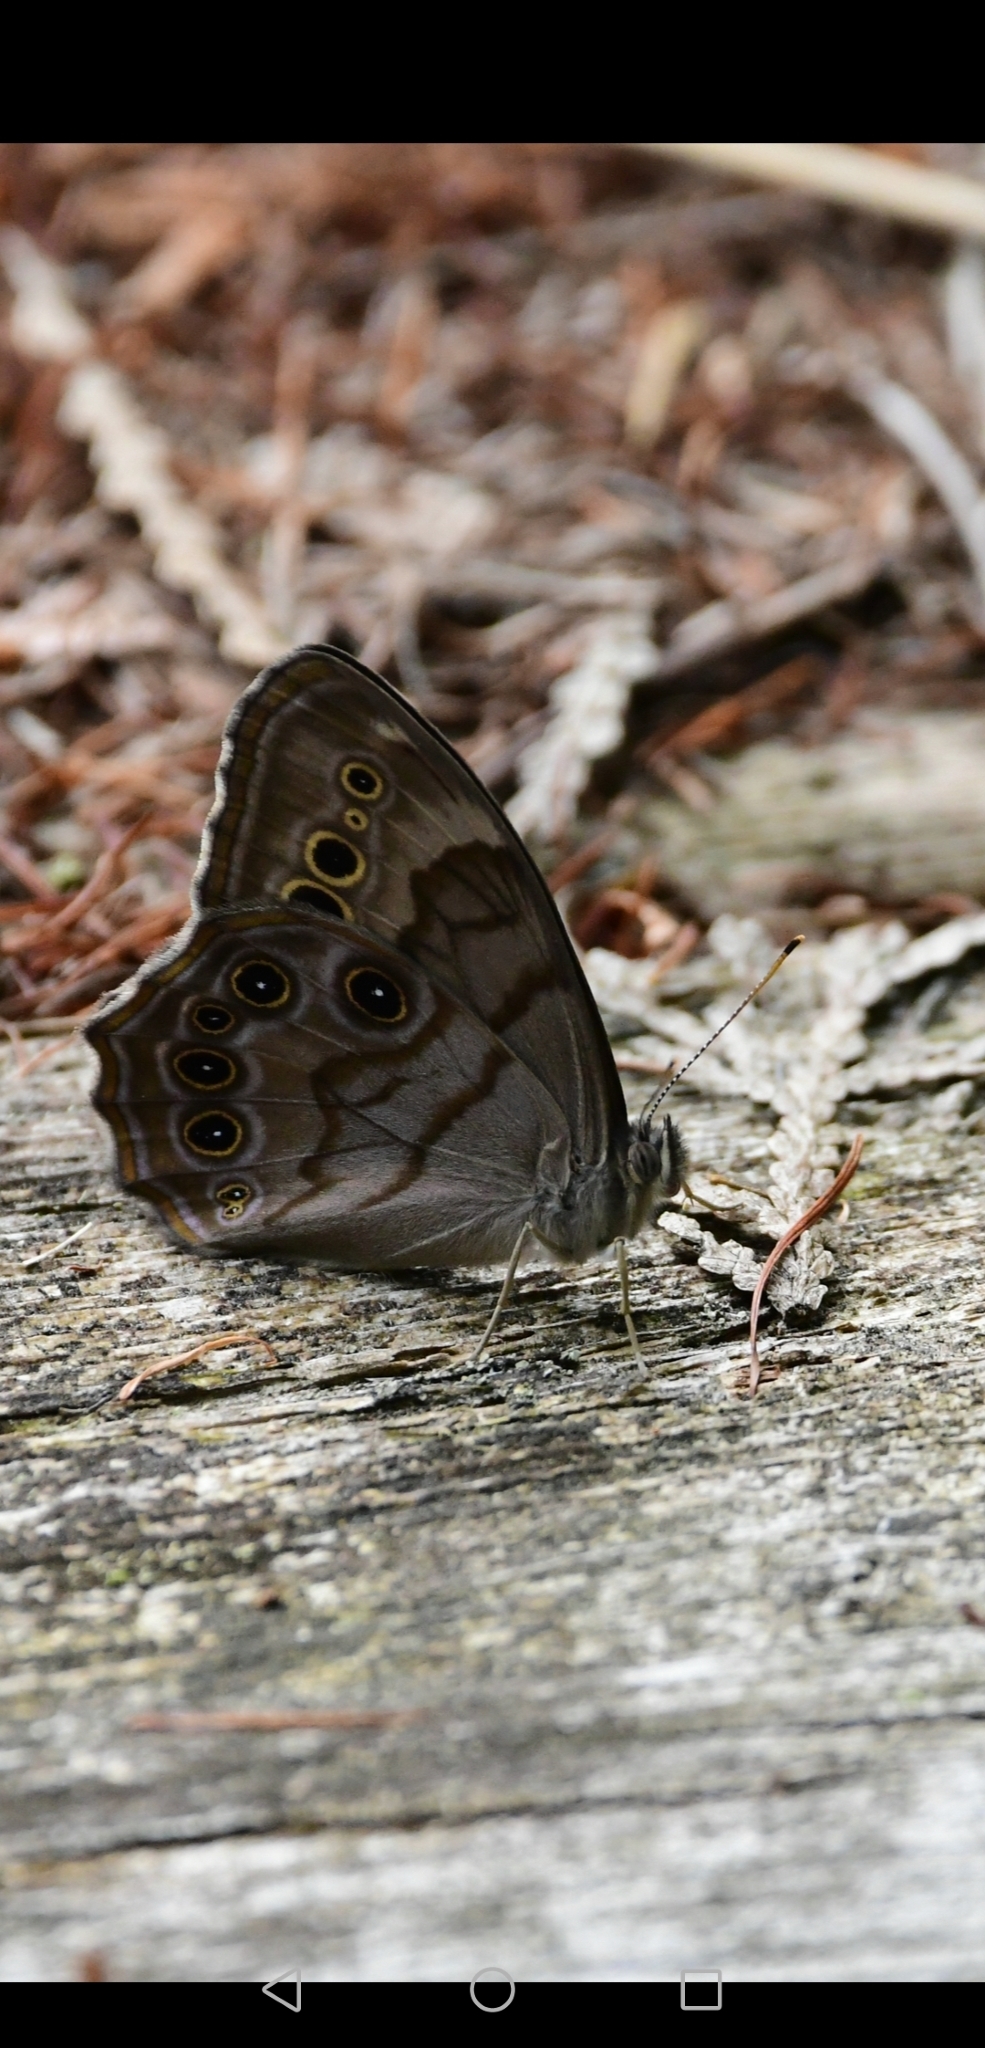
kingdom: Animalia
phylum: Arthropoda
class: Insecta
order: Lepidoptera
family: Nymphalidae
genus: Lethe
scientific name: Lethe anthedon
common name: Northern pearly-eye
